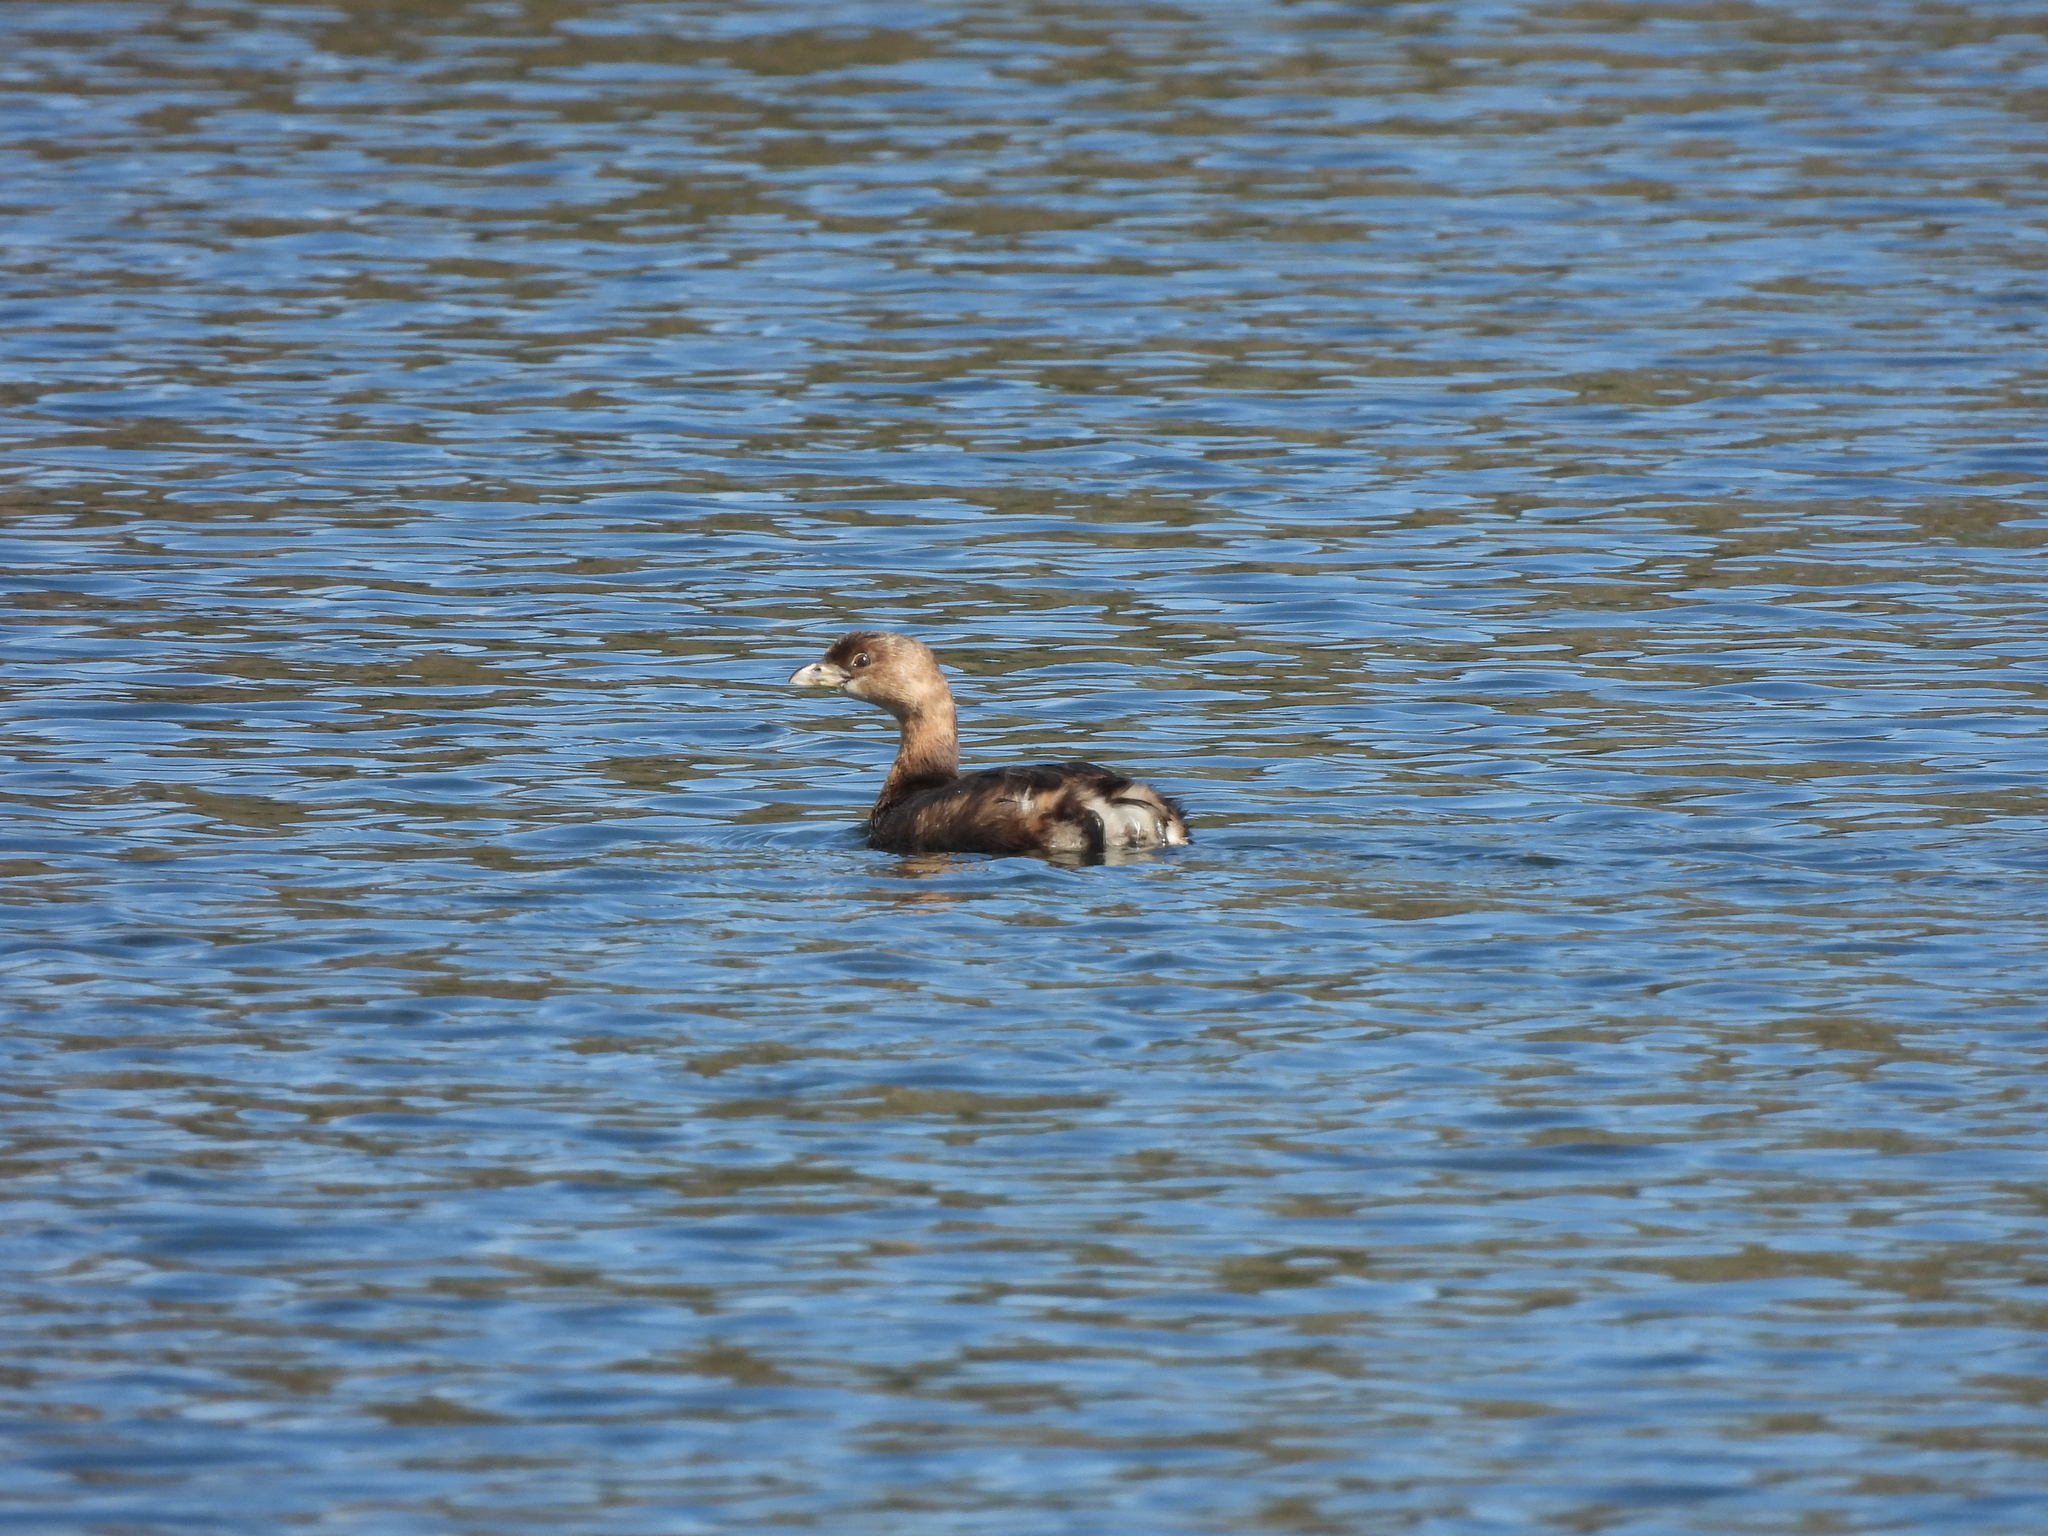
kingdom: Animalia
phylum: Chordata
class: Aves
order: Podicipediformes
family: Podicipedidae
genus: Podilymbus
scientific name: Podilymbus podiceps
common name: Pied-billed grebe
